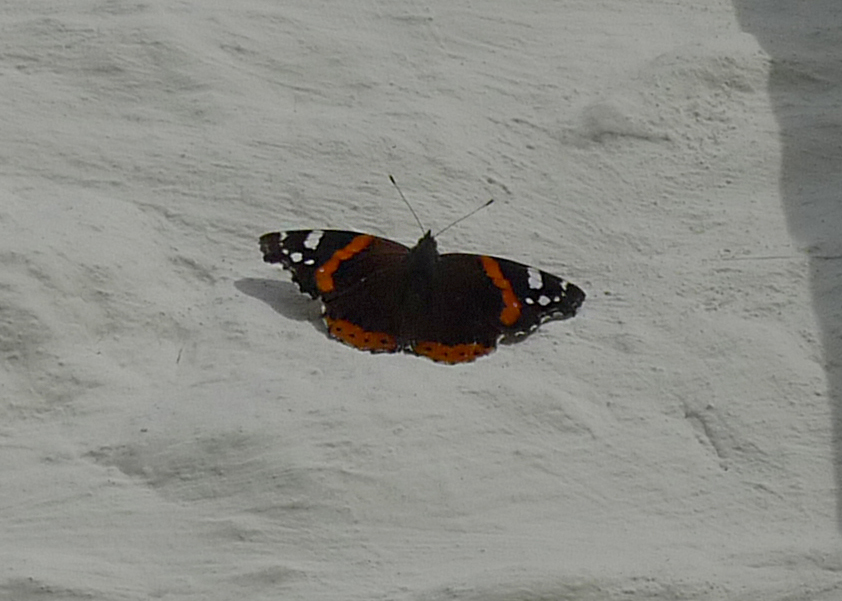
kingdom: Animalia
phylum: Arthropoda
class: Insecta
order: Lepidoptera
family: Nymphalidae
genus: Vanessa
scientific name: Vanessa atalanta
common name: Red admiral
